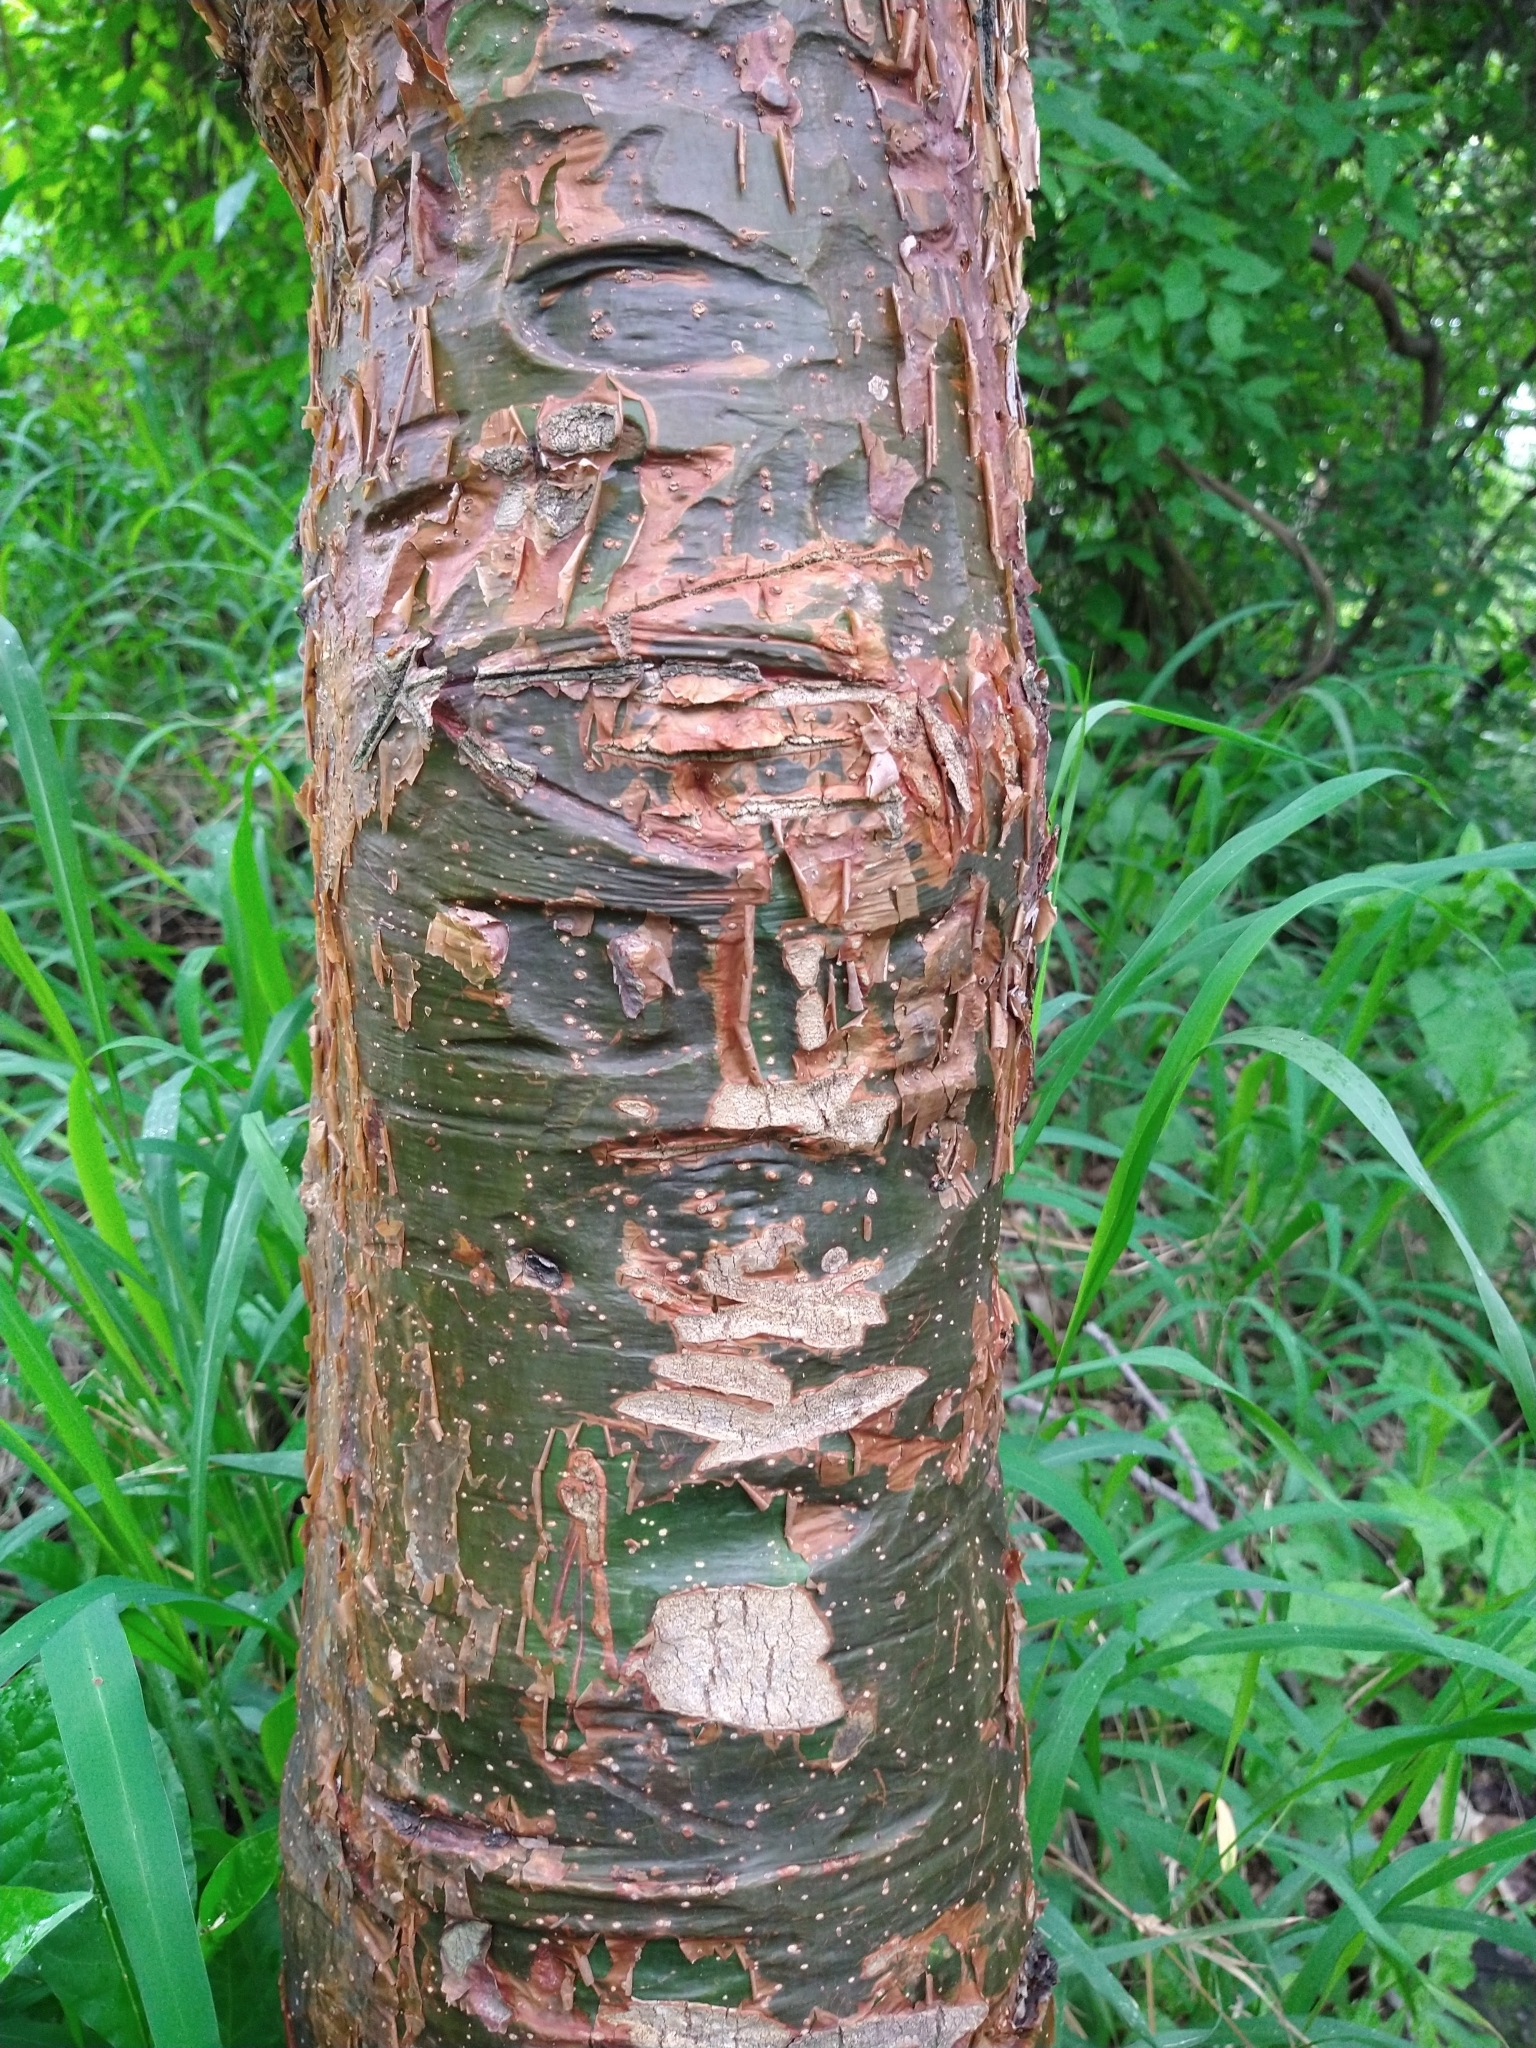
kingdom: Plantae
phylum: Tracheophyta
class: Magnoliopsida
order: Sapindales
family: Burseraceae
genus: Bursera
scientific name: Bursera simaruba
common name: Turpentine tree
